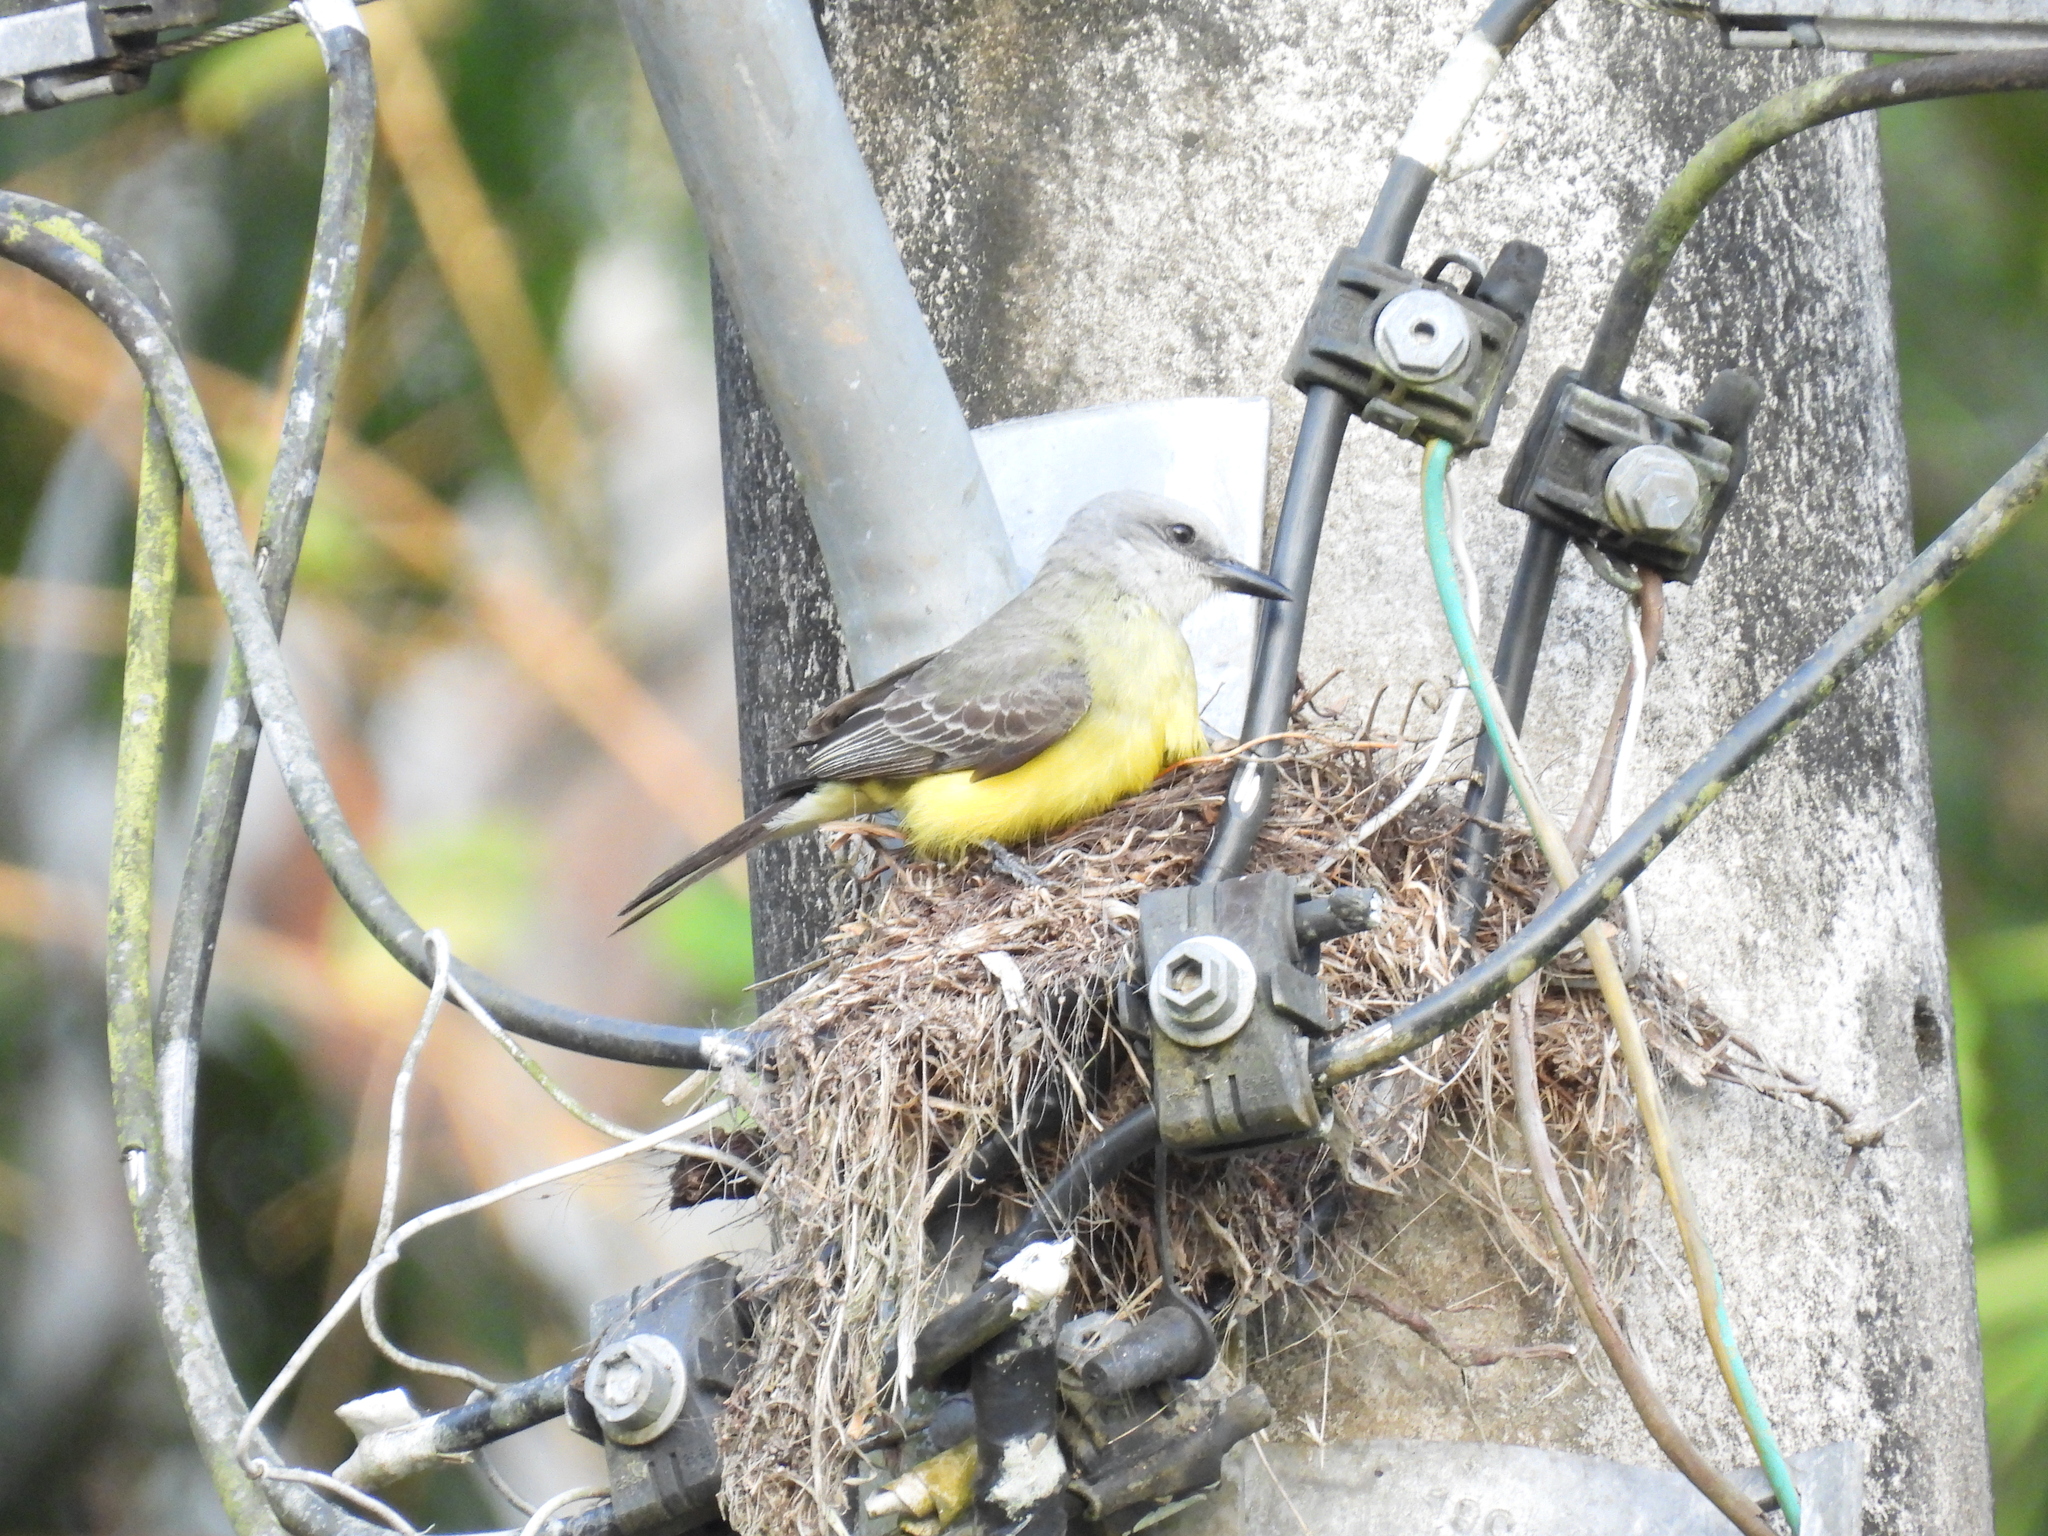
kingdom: Animalia
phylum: Chordata
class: Aves
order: Passeriformes
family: Tyrannidae
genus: Tyrannus
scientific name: Tyrannus melancholicus
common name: Tropical kingbird
